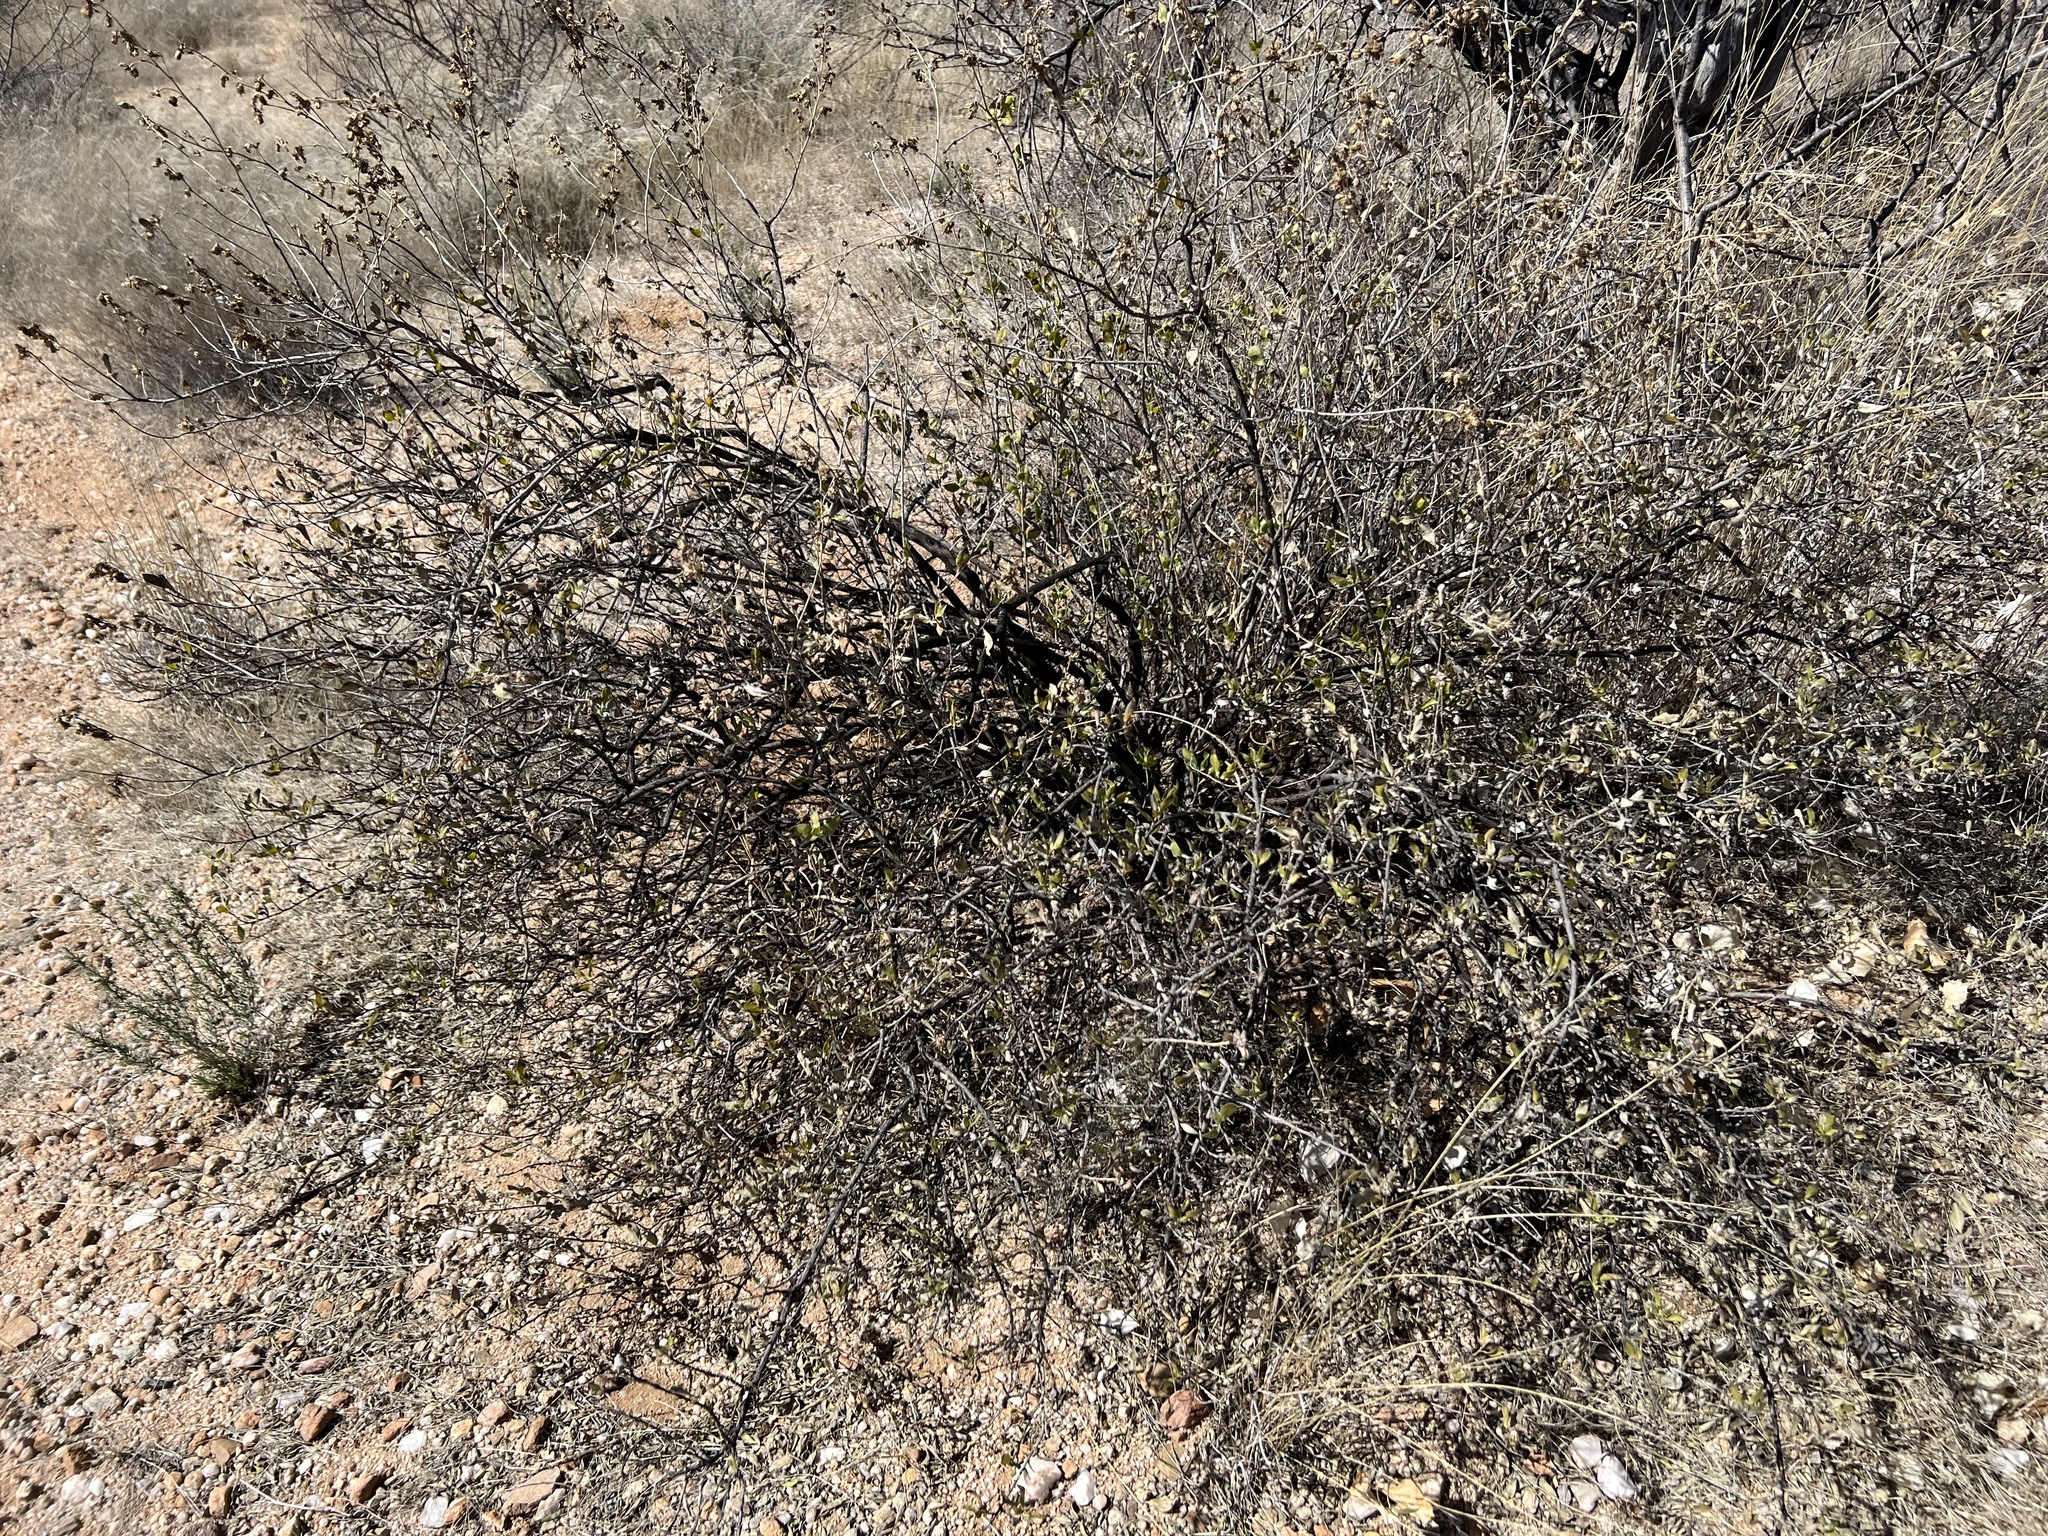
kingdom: Plantae
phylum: Tracheophyta
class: Magnoliopsida
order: Asterales
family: Asteraceae
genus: Flourensia
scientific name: Flourensia cernua
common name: Varnishbush
